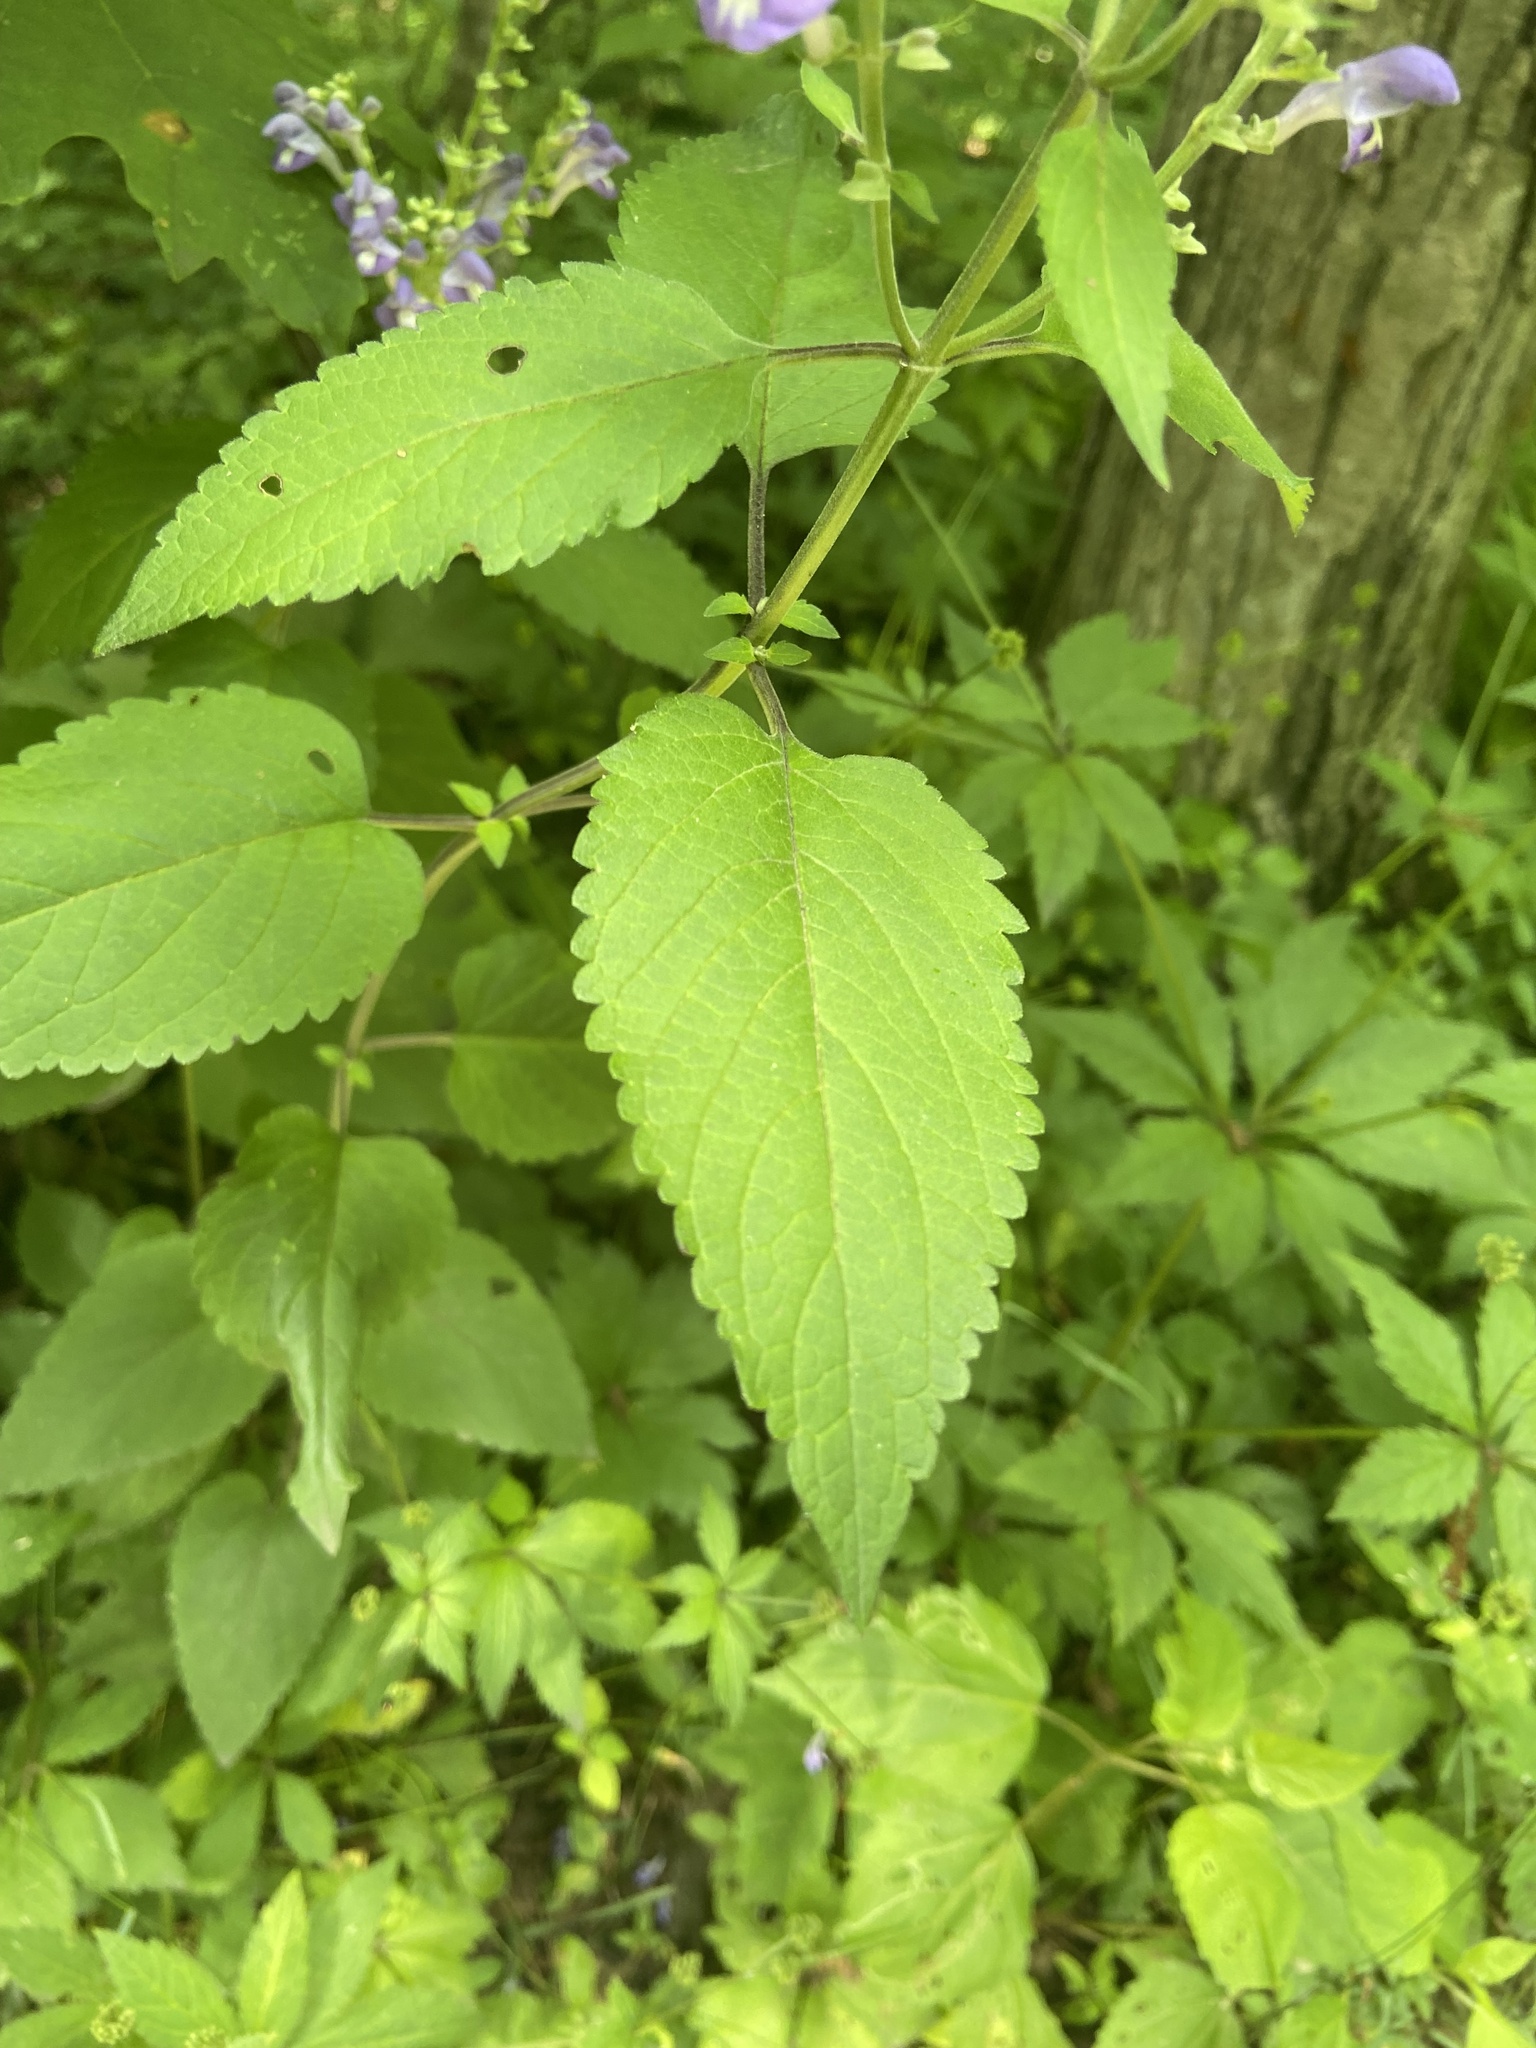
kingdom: Plantae
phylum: Tracheophyta
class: Magnoliopsida
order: Lamiales
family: Lamiaceae
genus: Scutellaria
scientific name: Scutellaria incana
